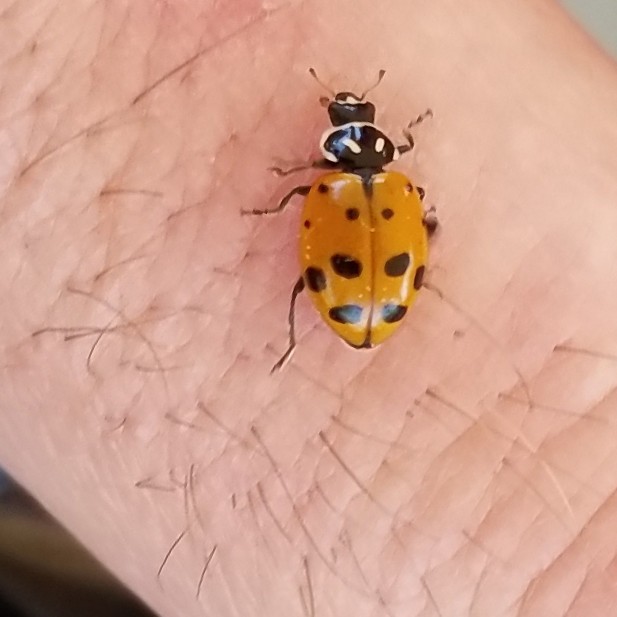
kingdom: Animalia
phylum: Arthropoda
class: Insecta
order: Coleoptera
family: Coccinellidae
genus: Hippodamia
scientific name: Hippodamia convergens
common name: Convergent lady beetle
